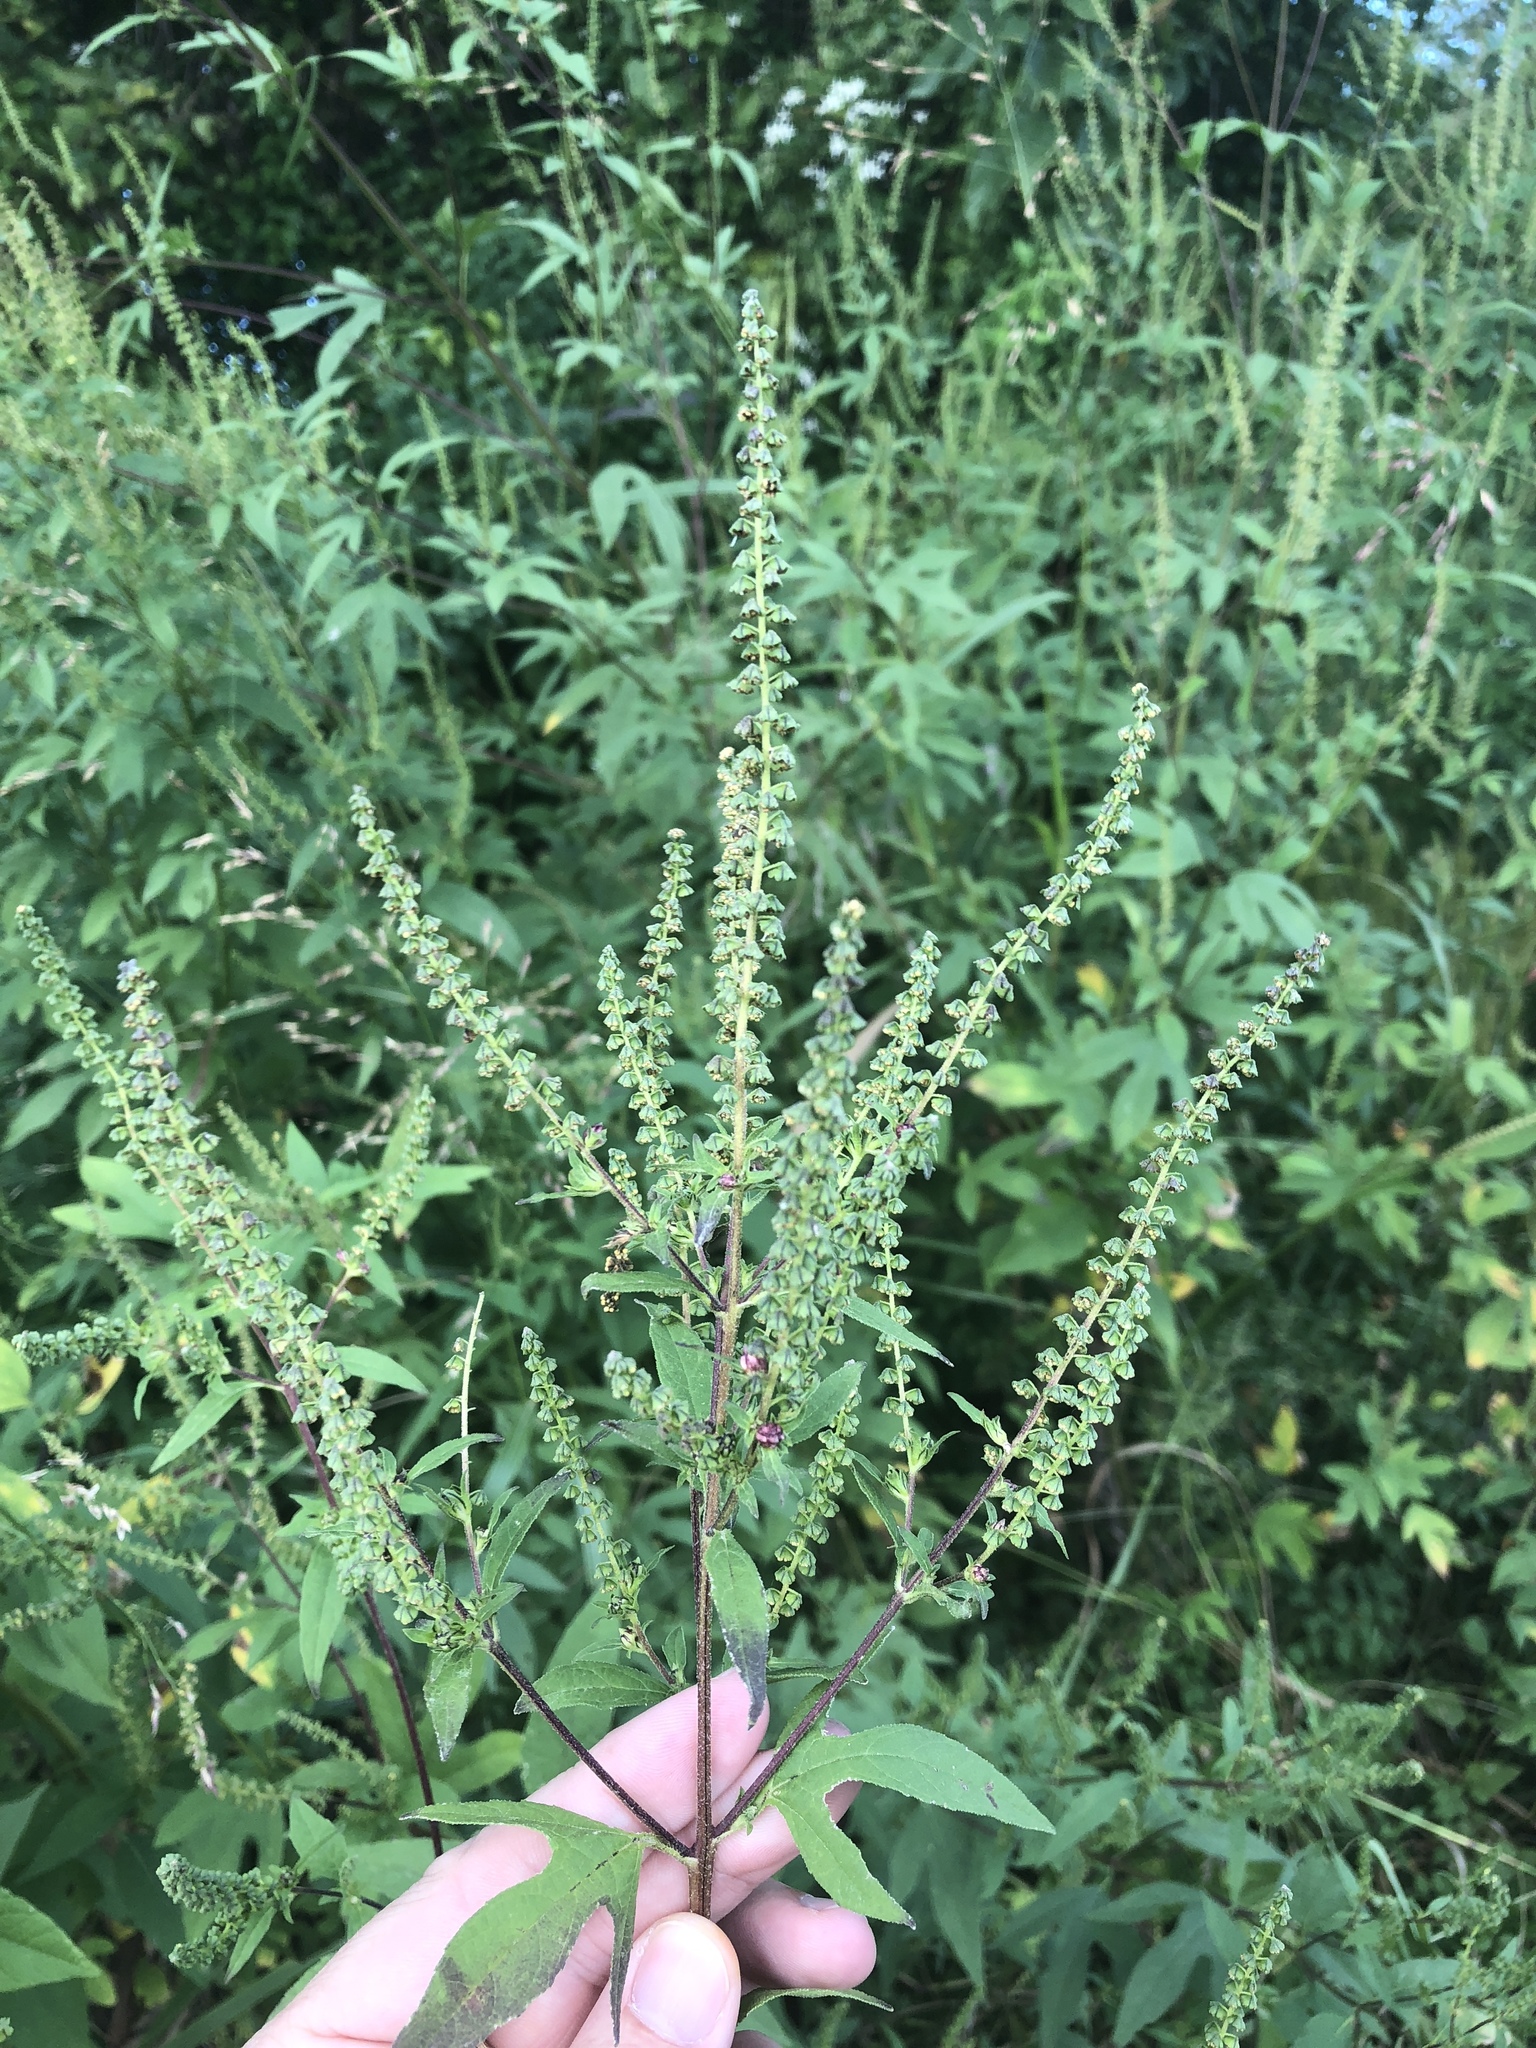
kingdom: Plantae
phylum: Tracheophyta
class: Magnoliopsida
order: Asterales
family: Asteraceae
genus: Ambrosia
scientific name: Ambrosia trifida
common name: Giant ragweed
